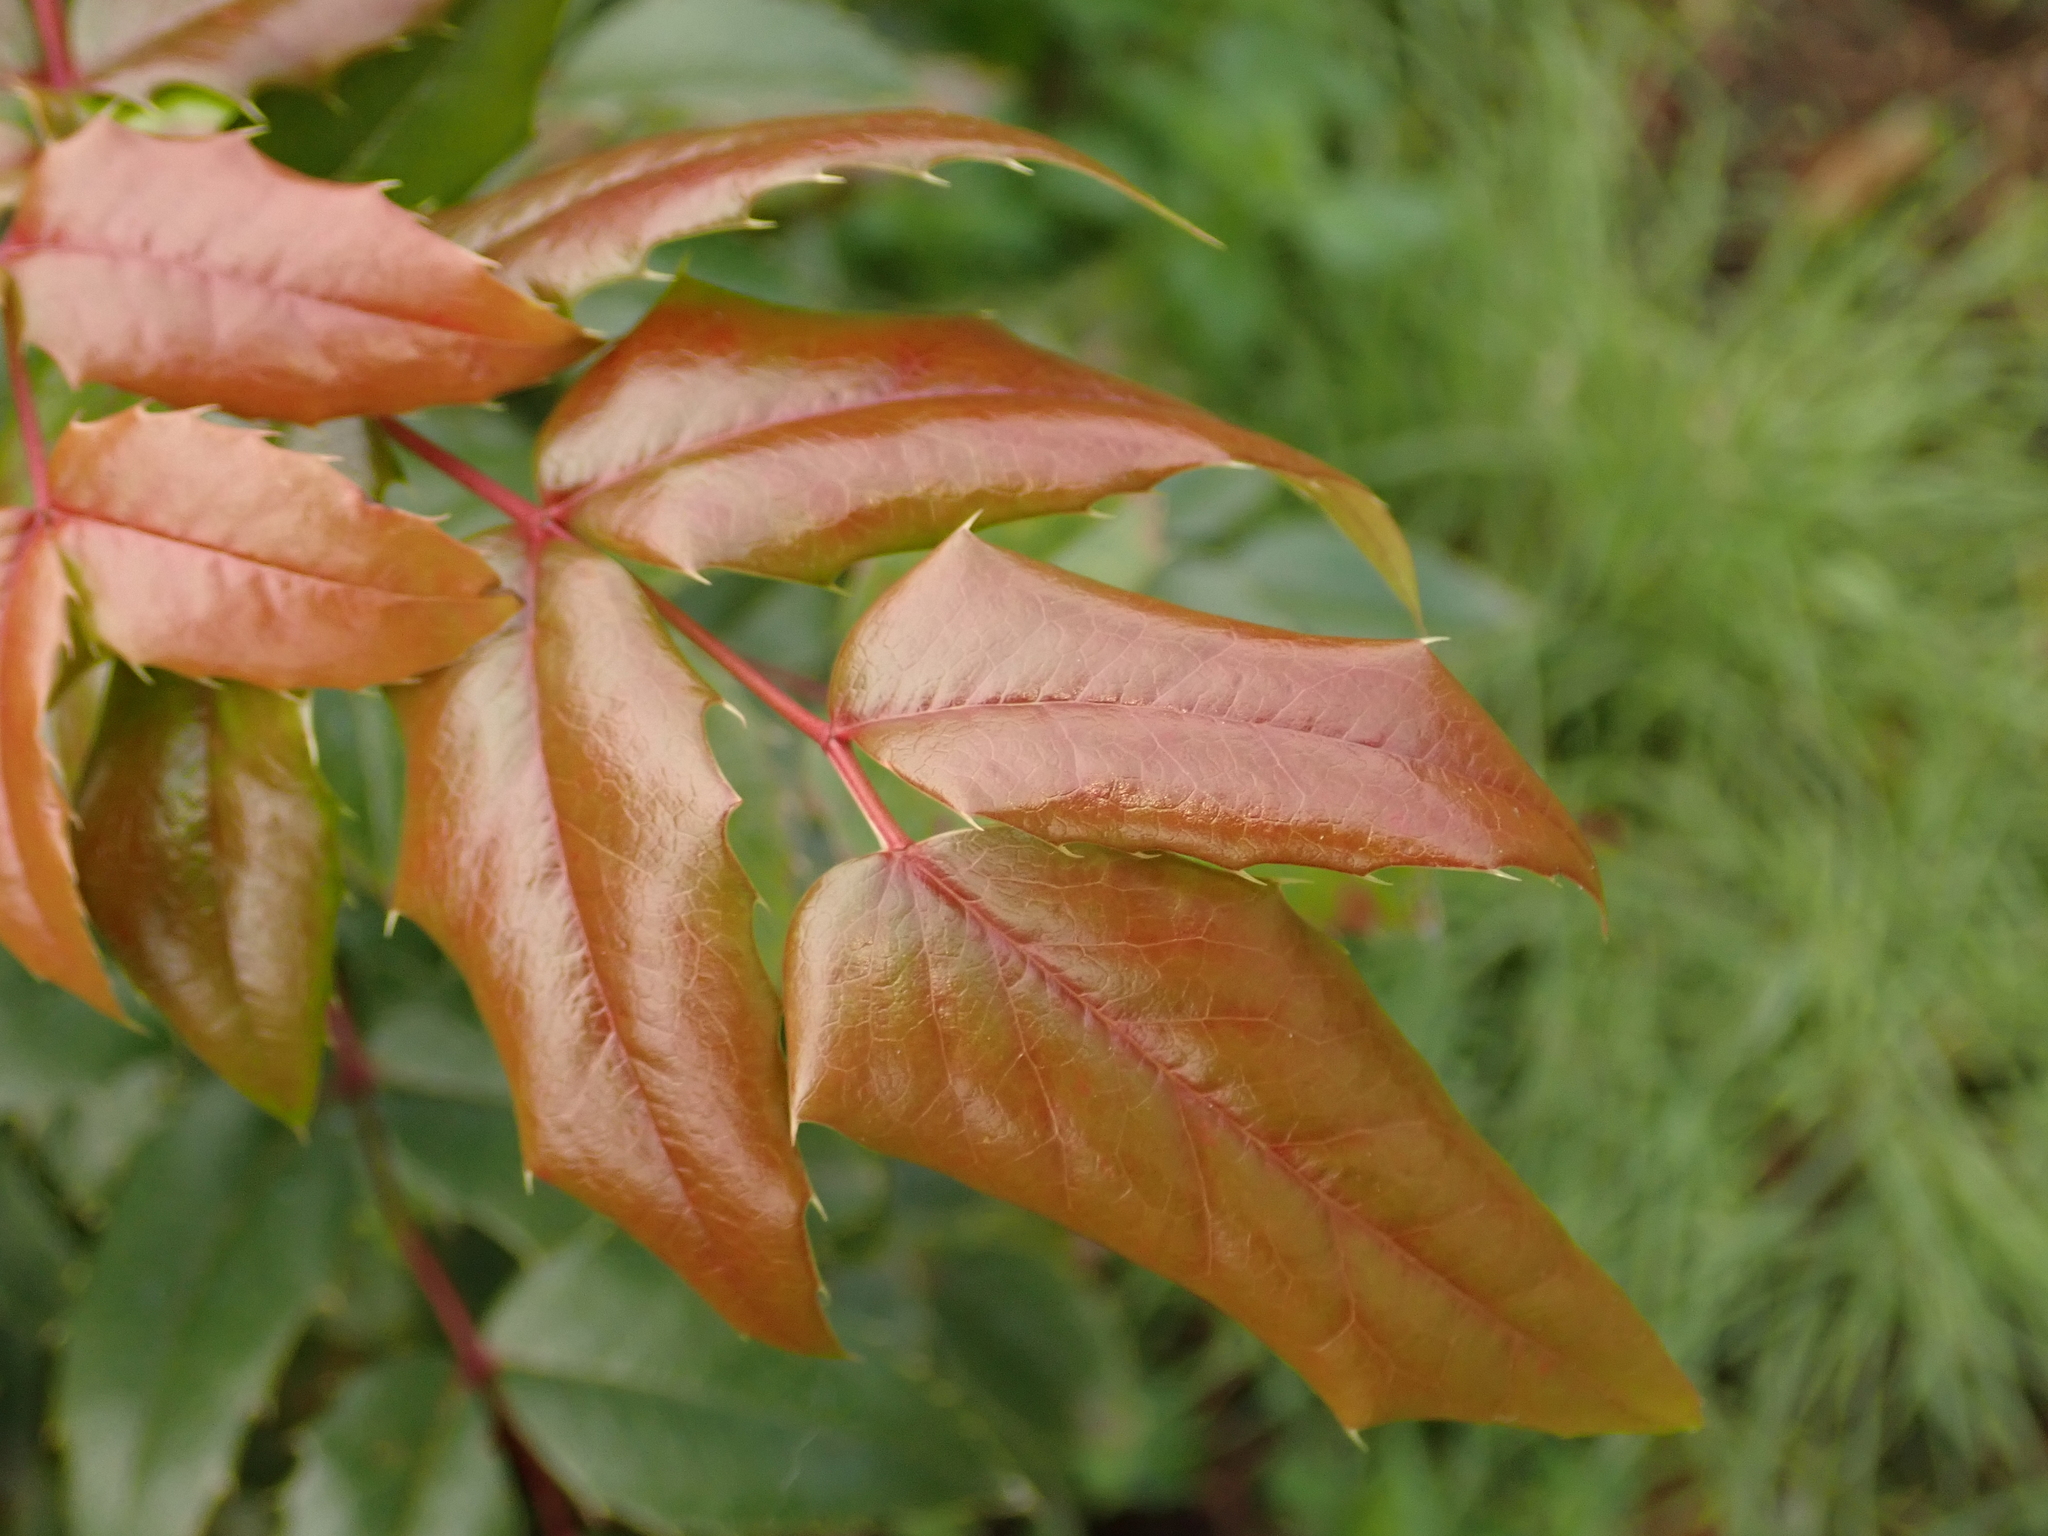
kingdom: Plantae
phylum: Tracheophyta
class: Magnoliopsida
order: Ranunculales
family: Berberidaceae
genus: Mahonia
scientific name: Mahonia aquifolium
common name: Oregon-grape
